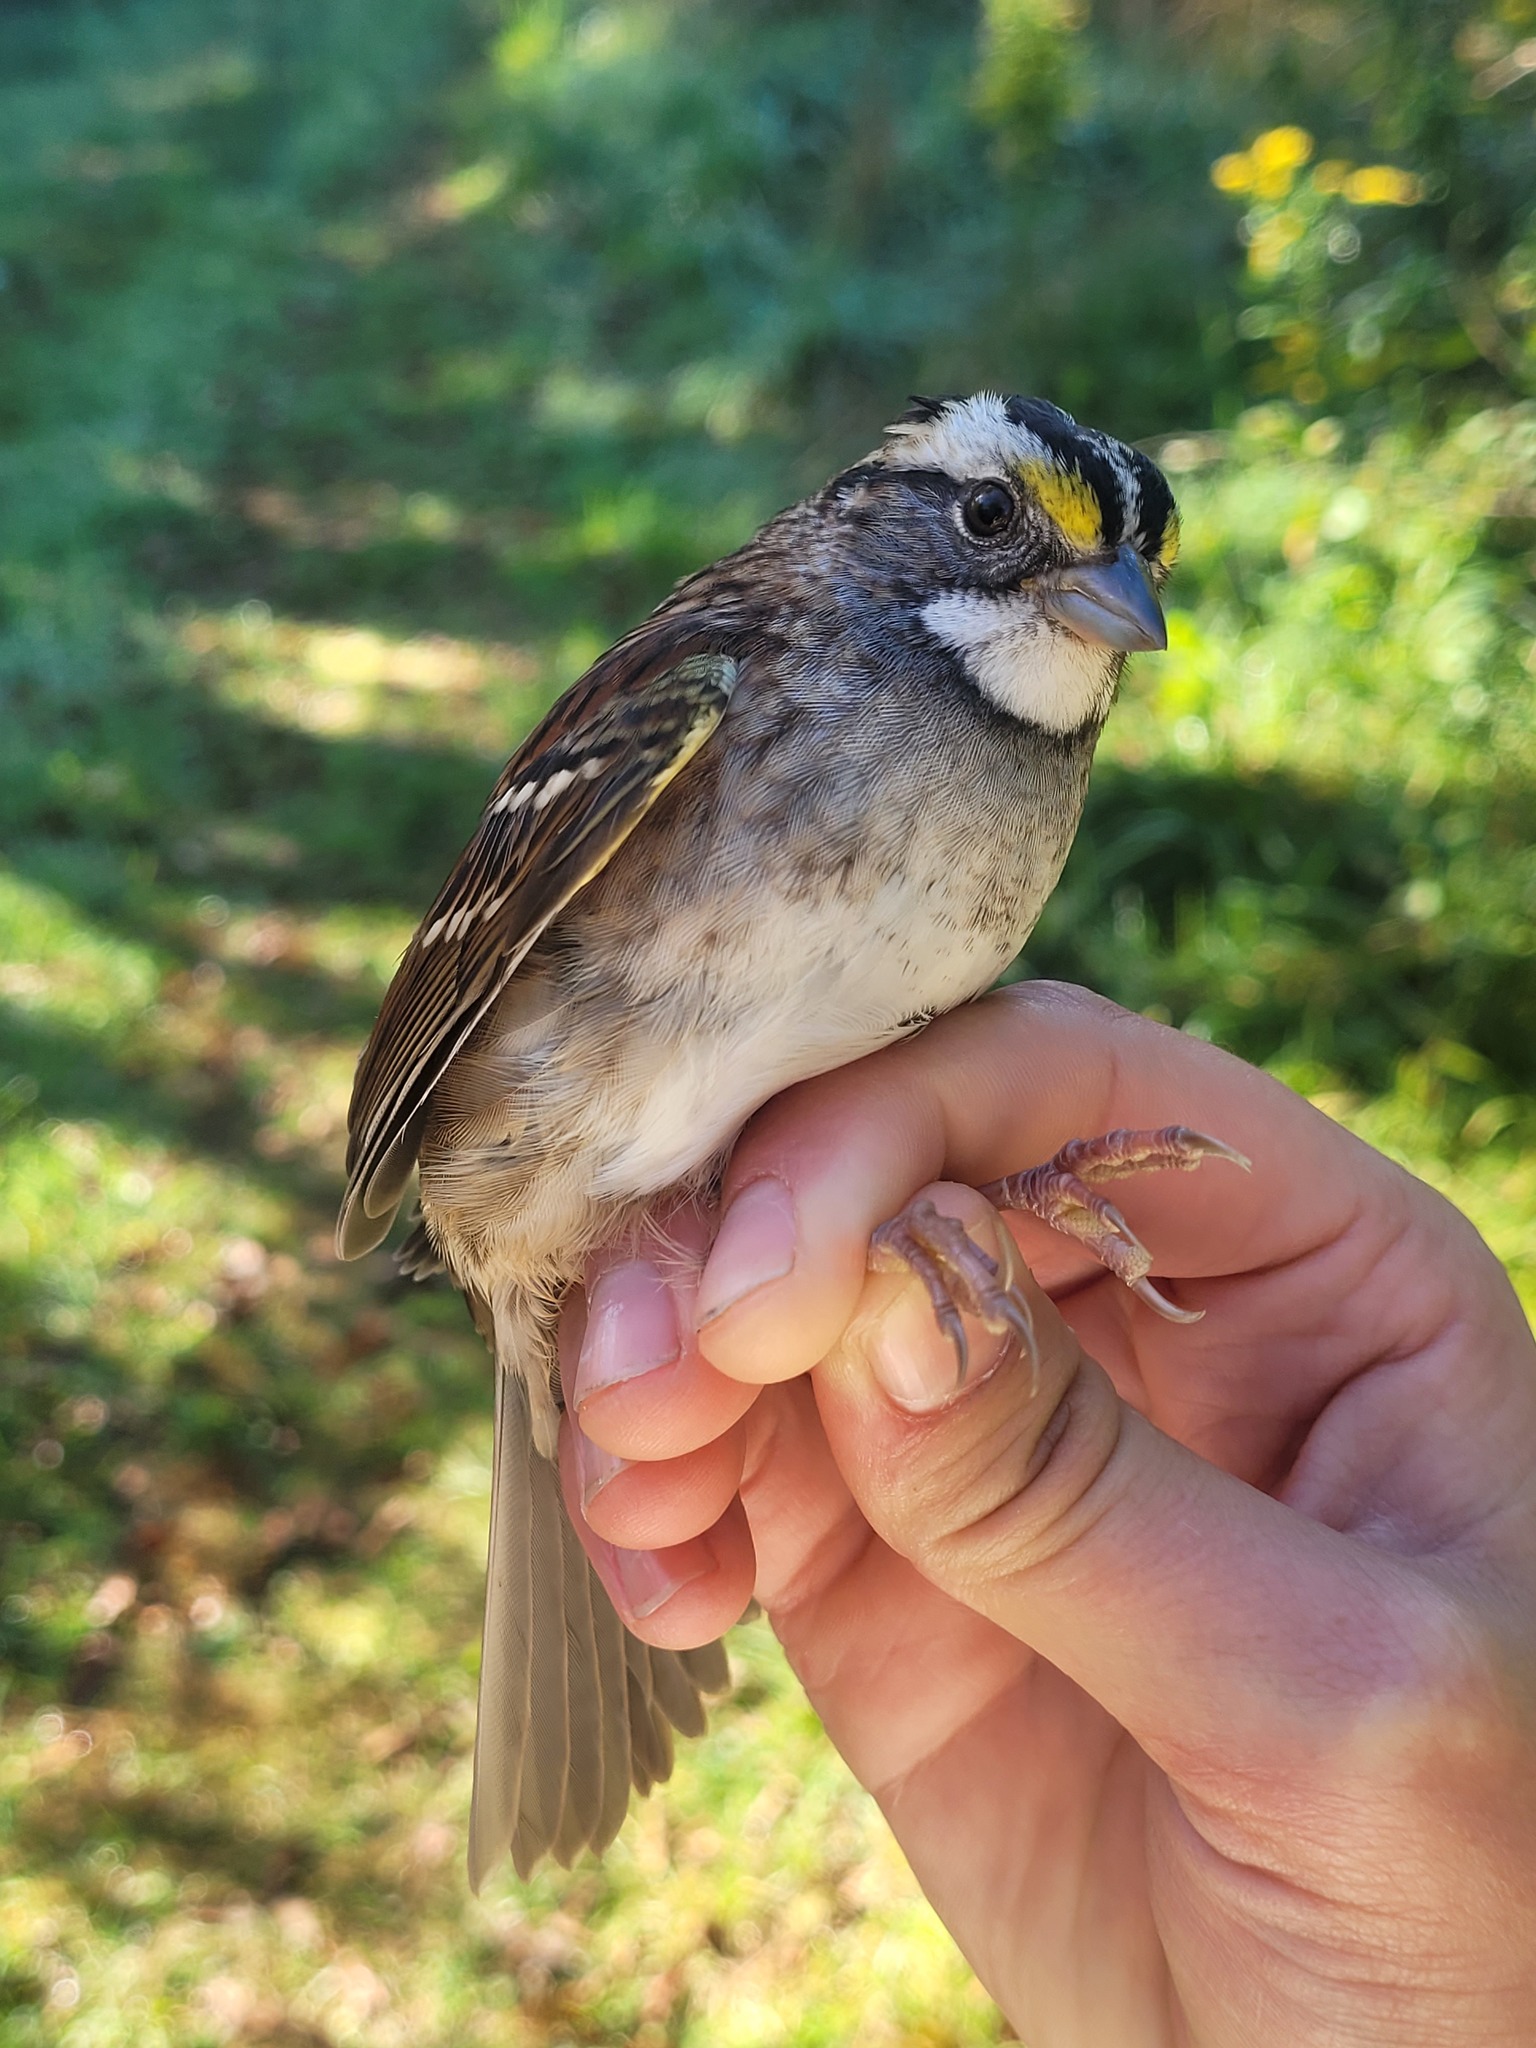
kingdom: Animalia
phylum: Chordata
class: Aves
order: Passeriformes
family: Passerellidae
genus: Zonotrichia
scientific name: Zonotrichia albicollis
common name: White-throated sparrow
